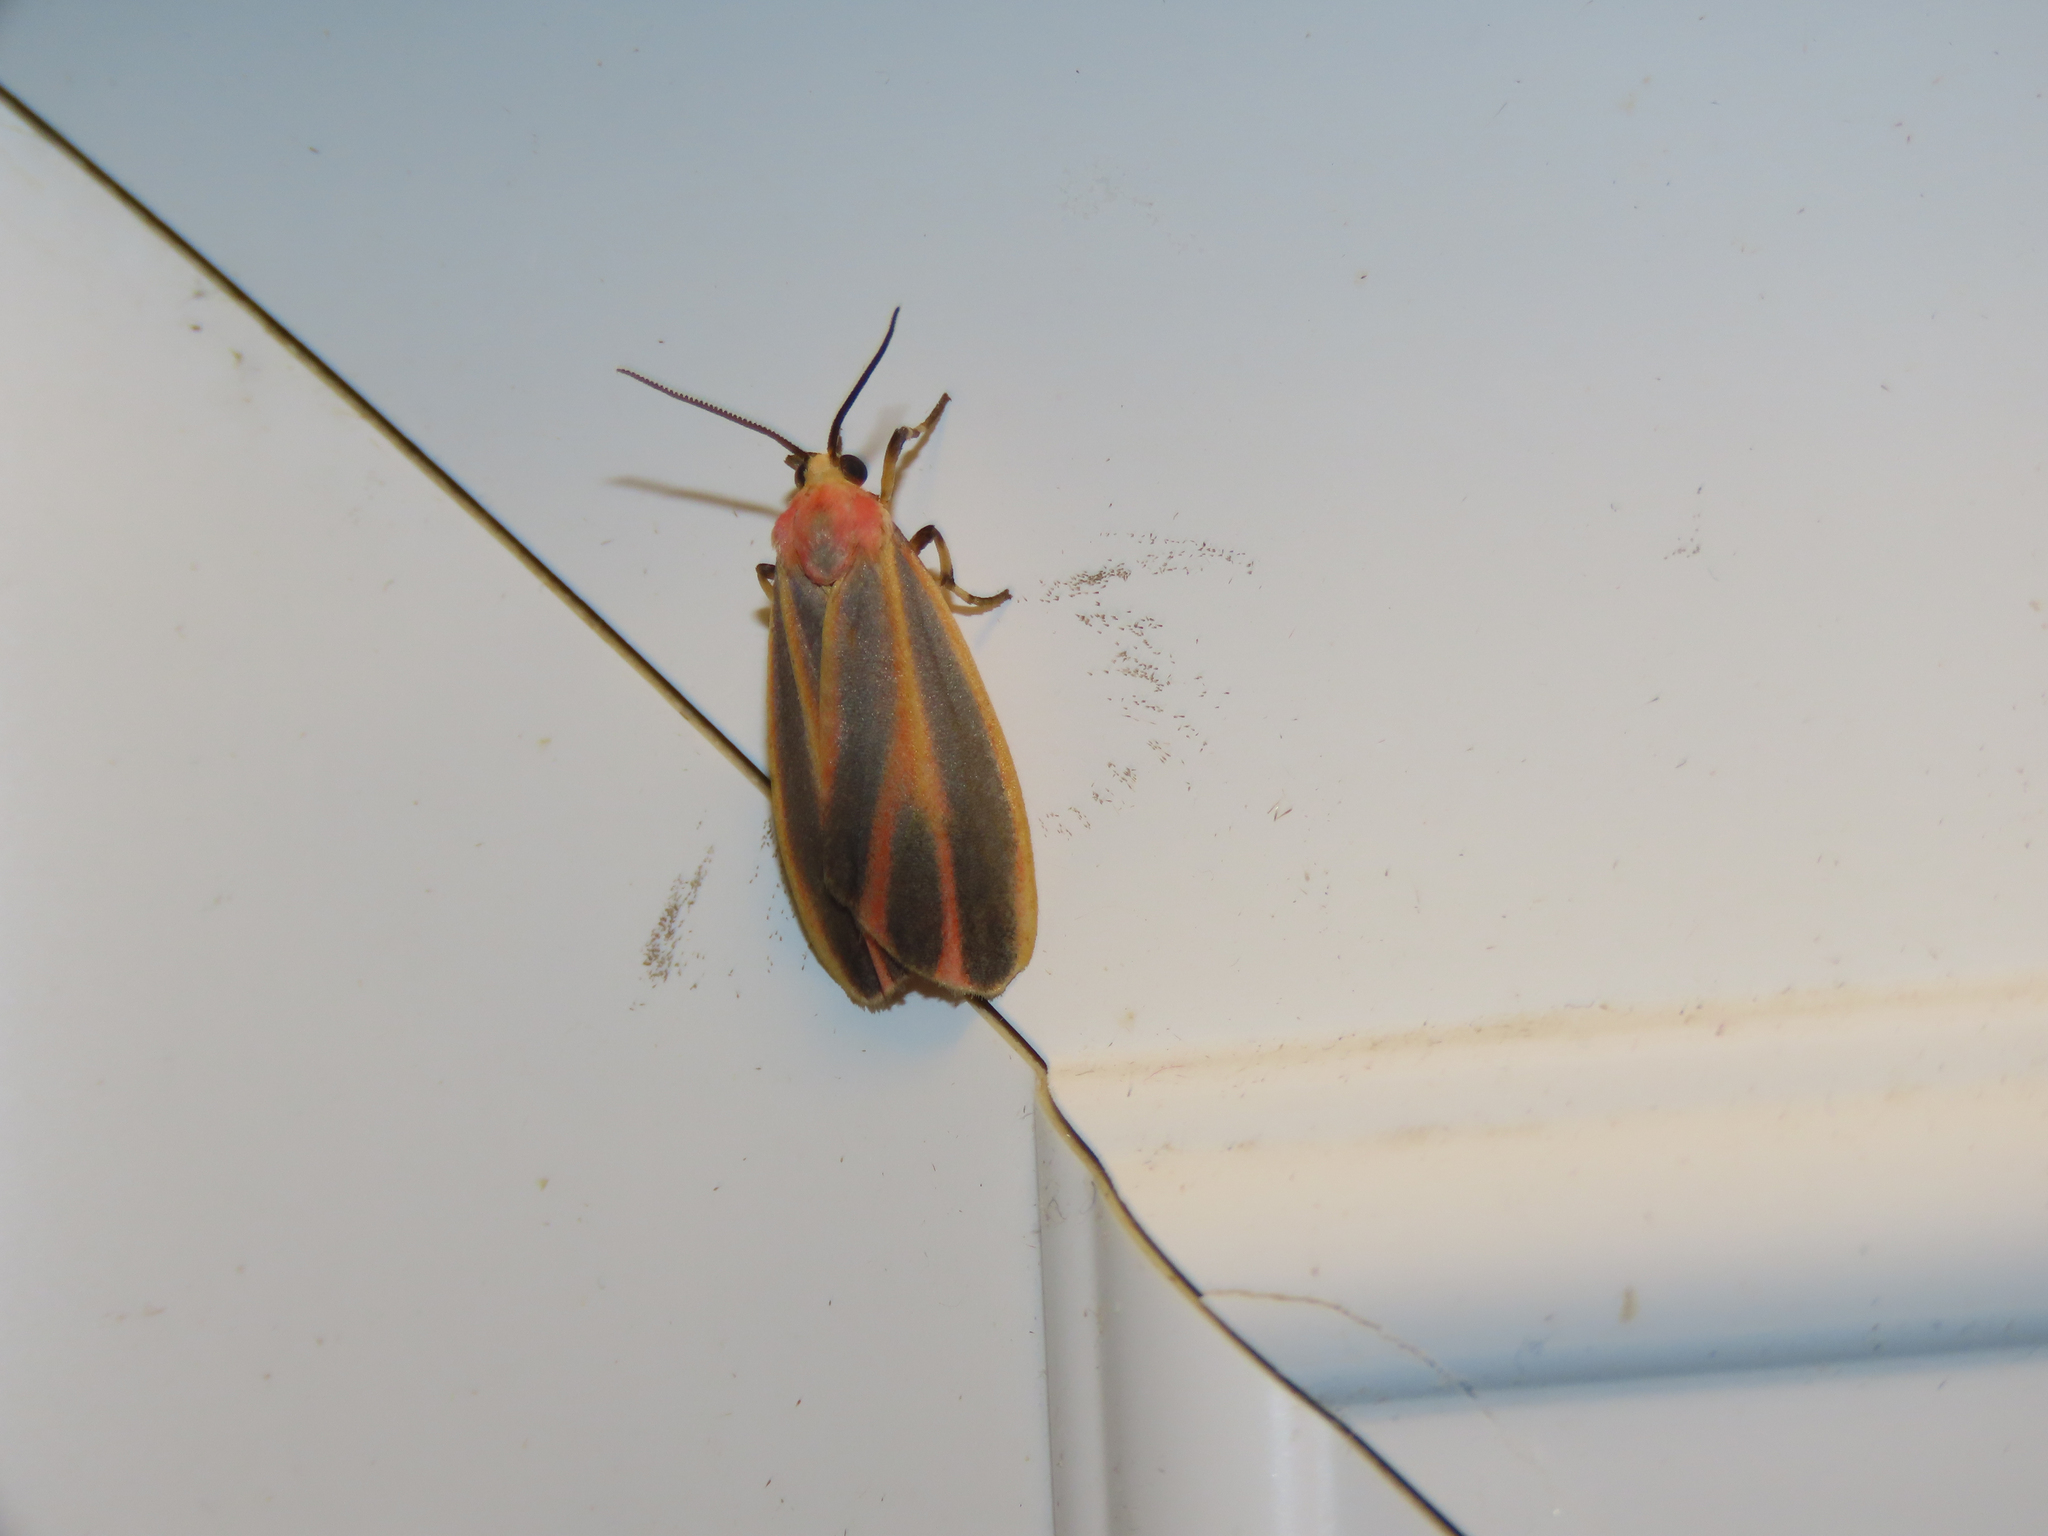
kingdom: Animalia
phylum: Arthropoda
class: Insecta
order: Lepidoptera
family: Erebidae
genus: Hypoprepia
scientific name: Hypoprepia fucosa
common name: Painted lichen moth
